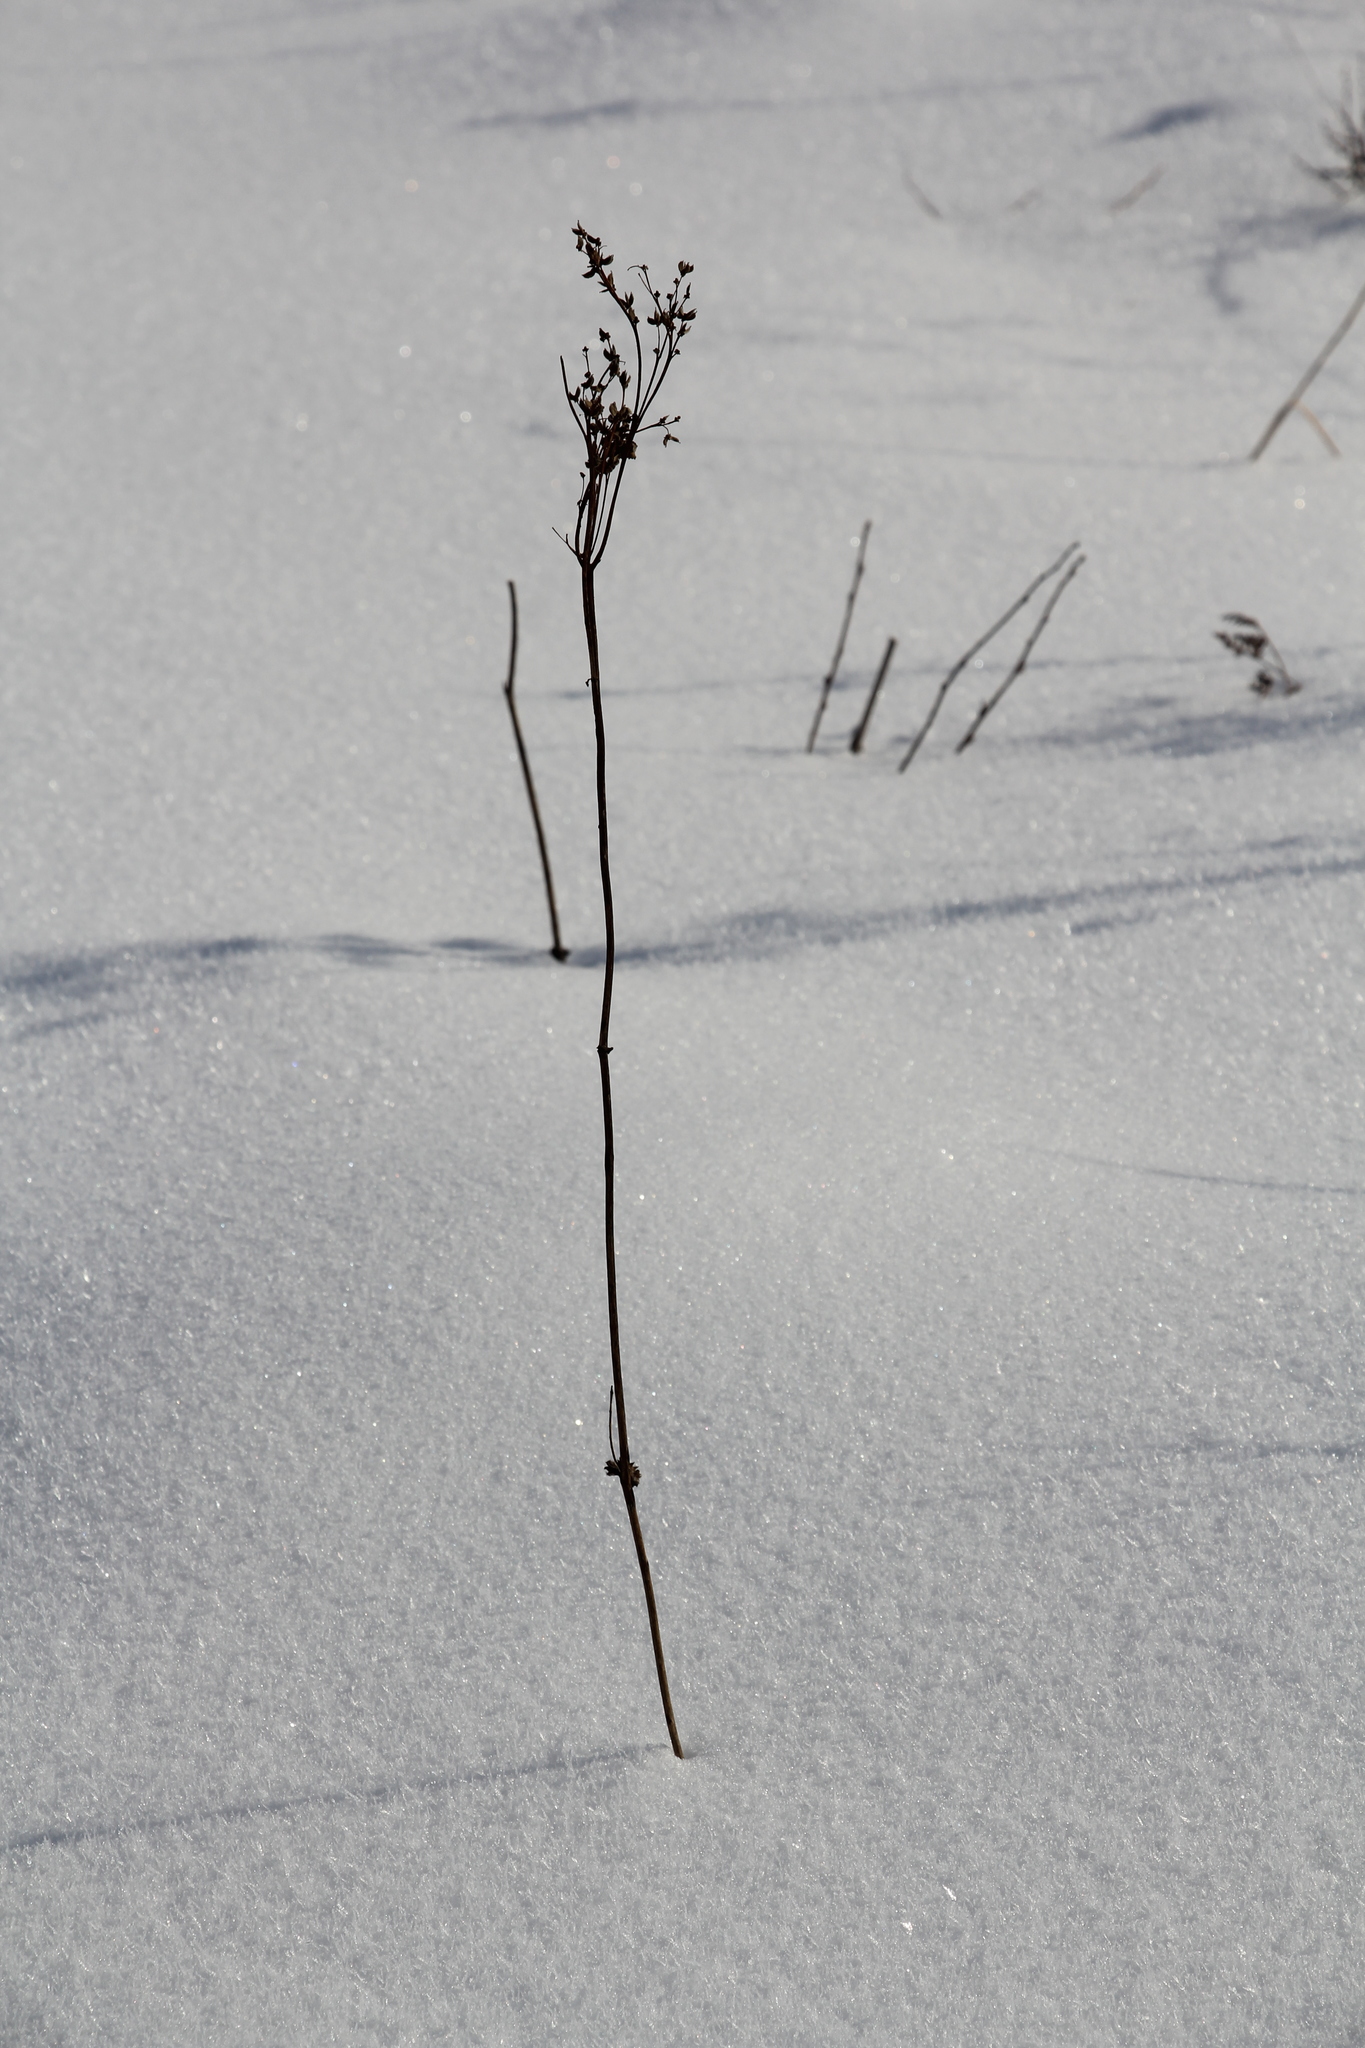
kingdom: Plantae
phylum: Tracheophyta
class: Magnoliopsida
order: Rosales
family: Rosaceae
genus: Filipendula
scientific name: Filipendula vulgaris
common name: Dropwort
